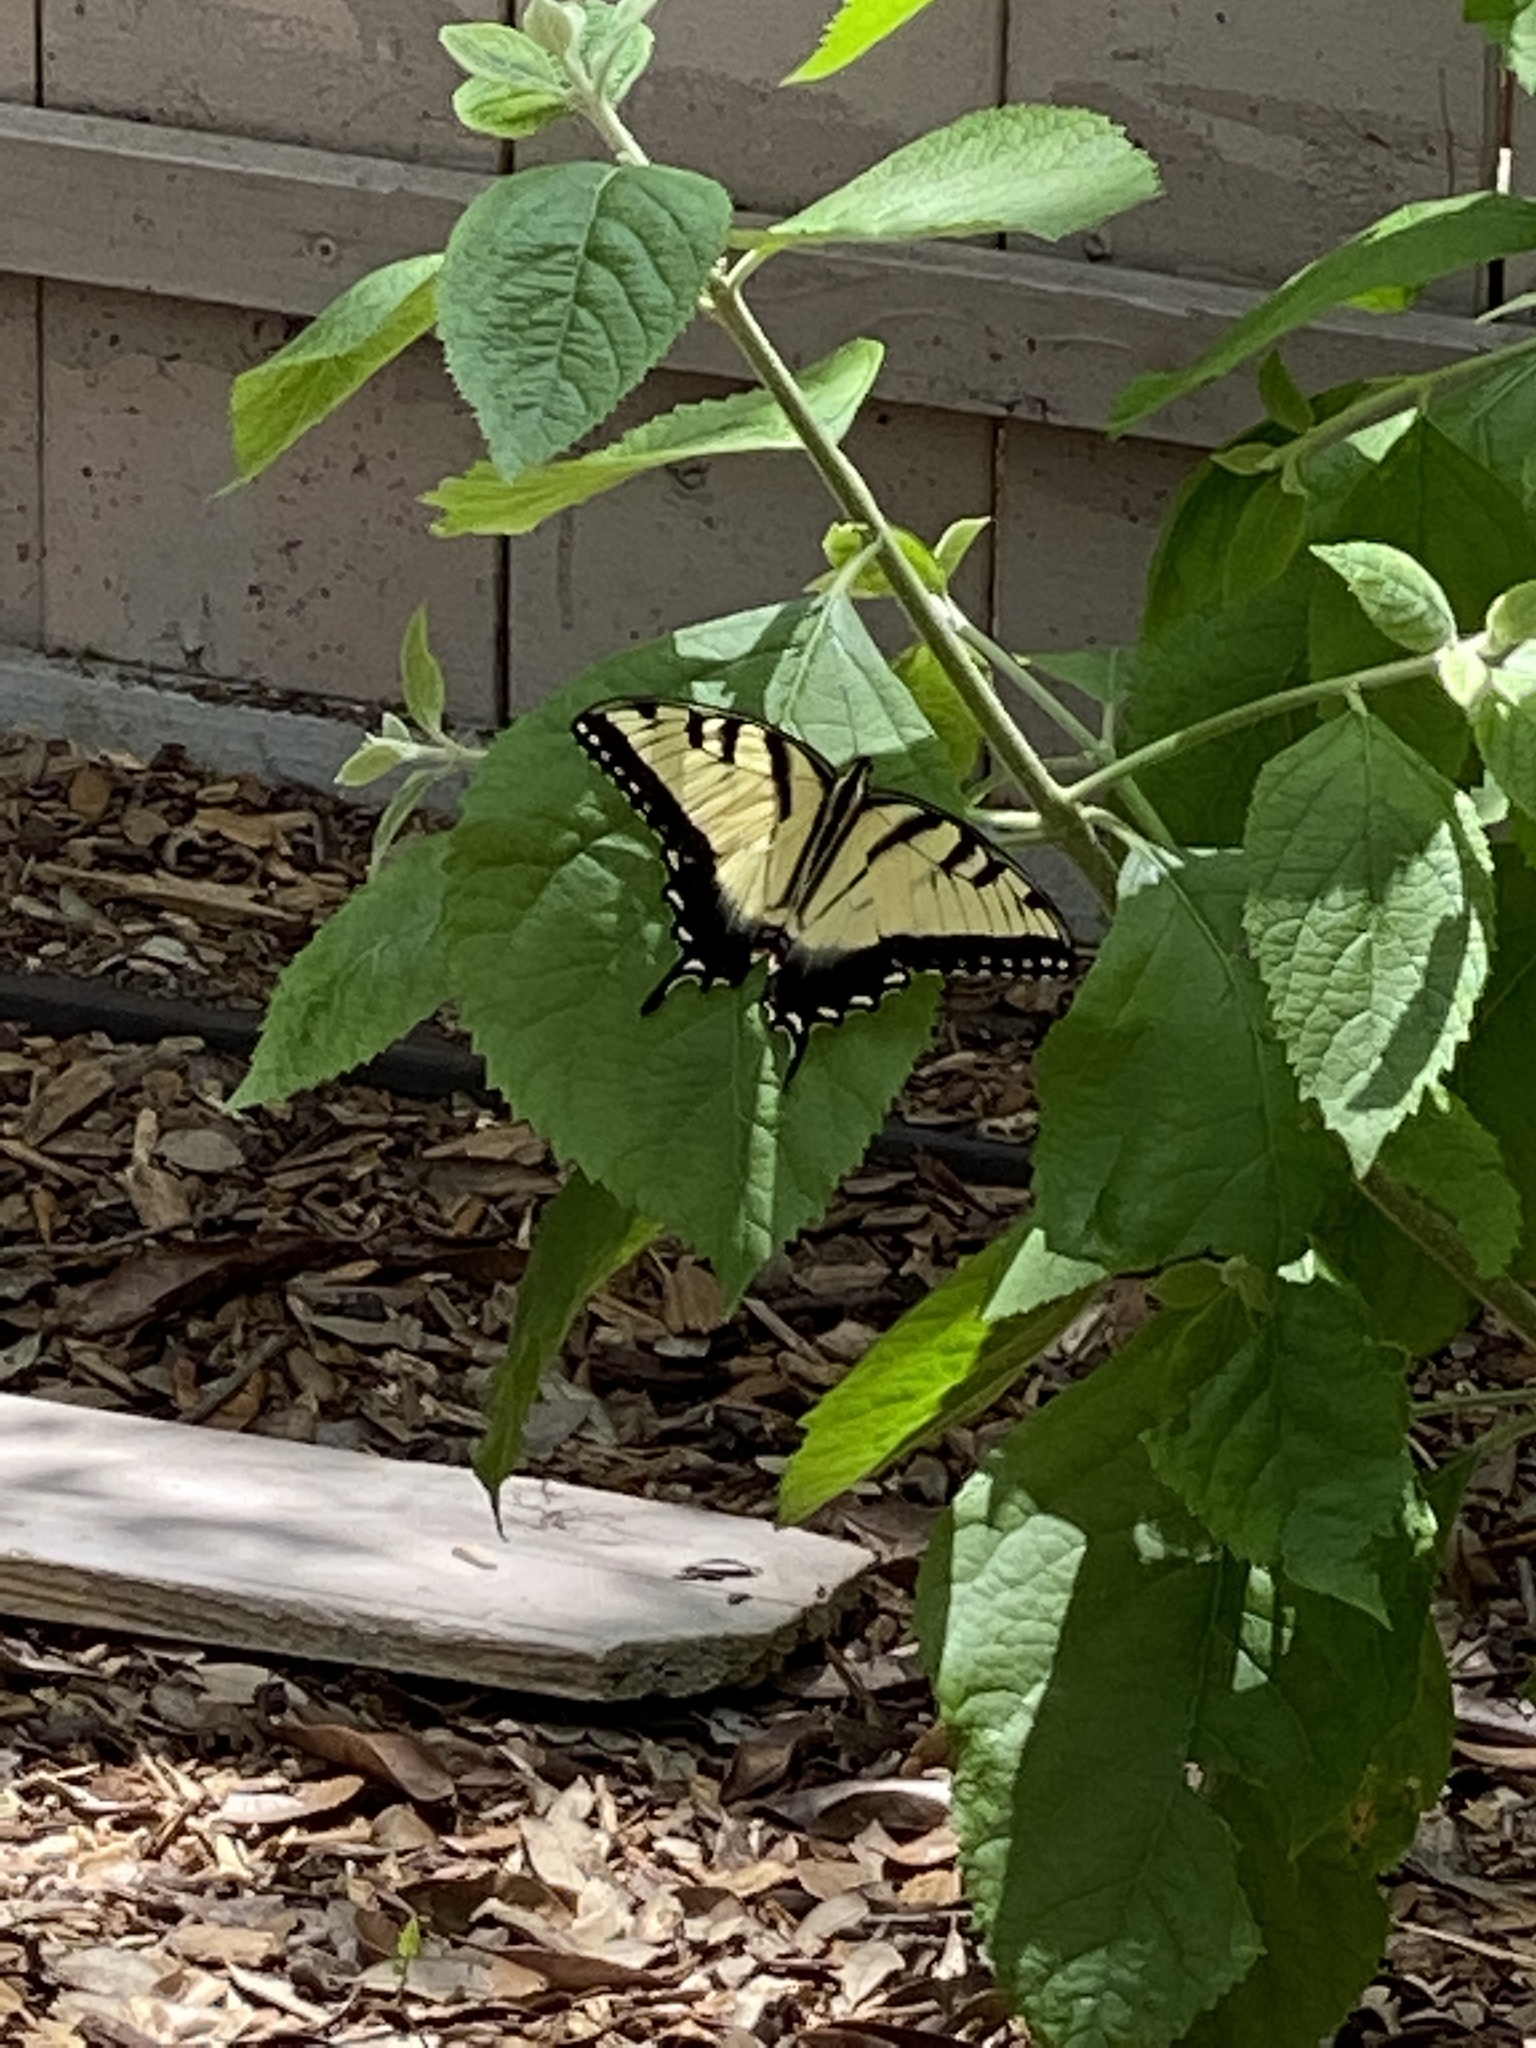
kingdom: Animalia
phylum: Arthropoda
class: Insecta
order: Lepidoptera
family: Papilionidae
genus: Papilio
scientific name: Papilio glaucus
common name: Tiger swallowtail
